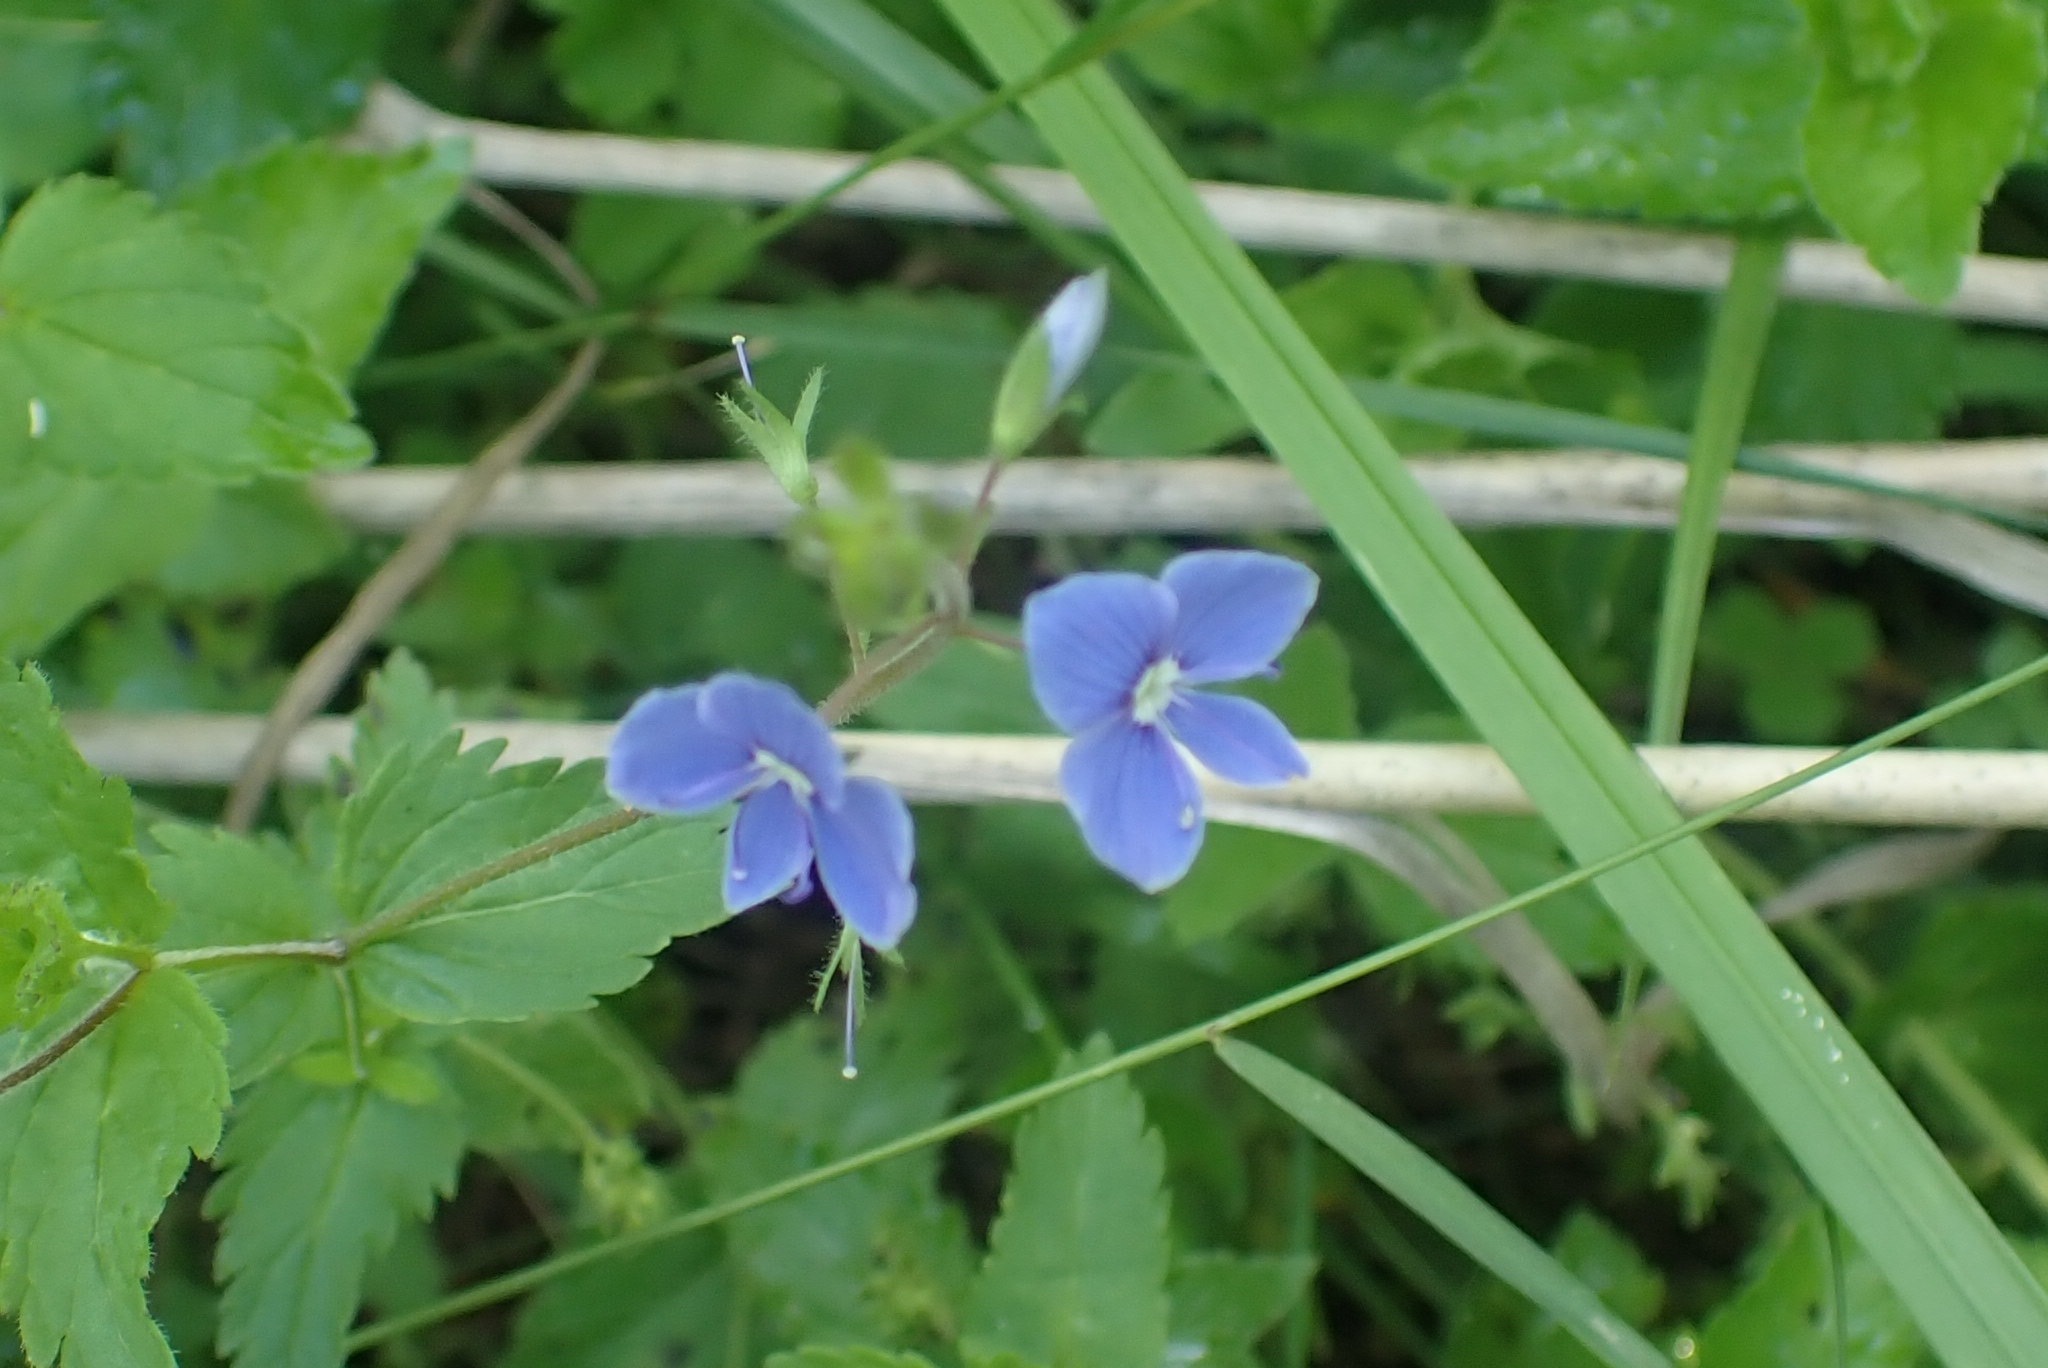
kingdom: Plantae
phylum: Tracheophyta
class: Magnoliopsida
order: Lamiales
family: Plantaginaceae
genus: Veronica
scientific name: Veronica chamaedrys
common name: Germander speedwell
